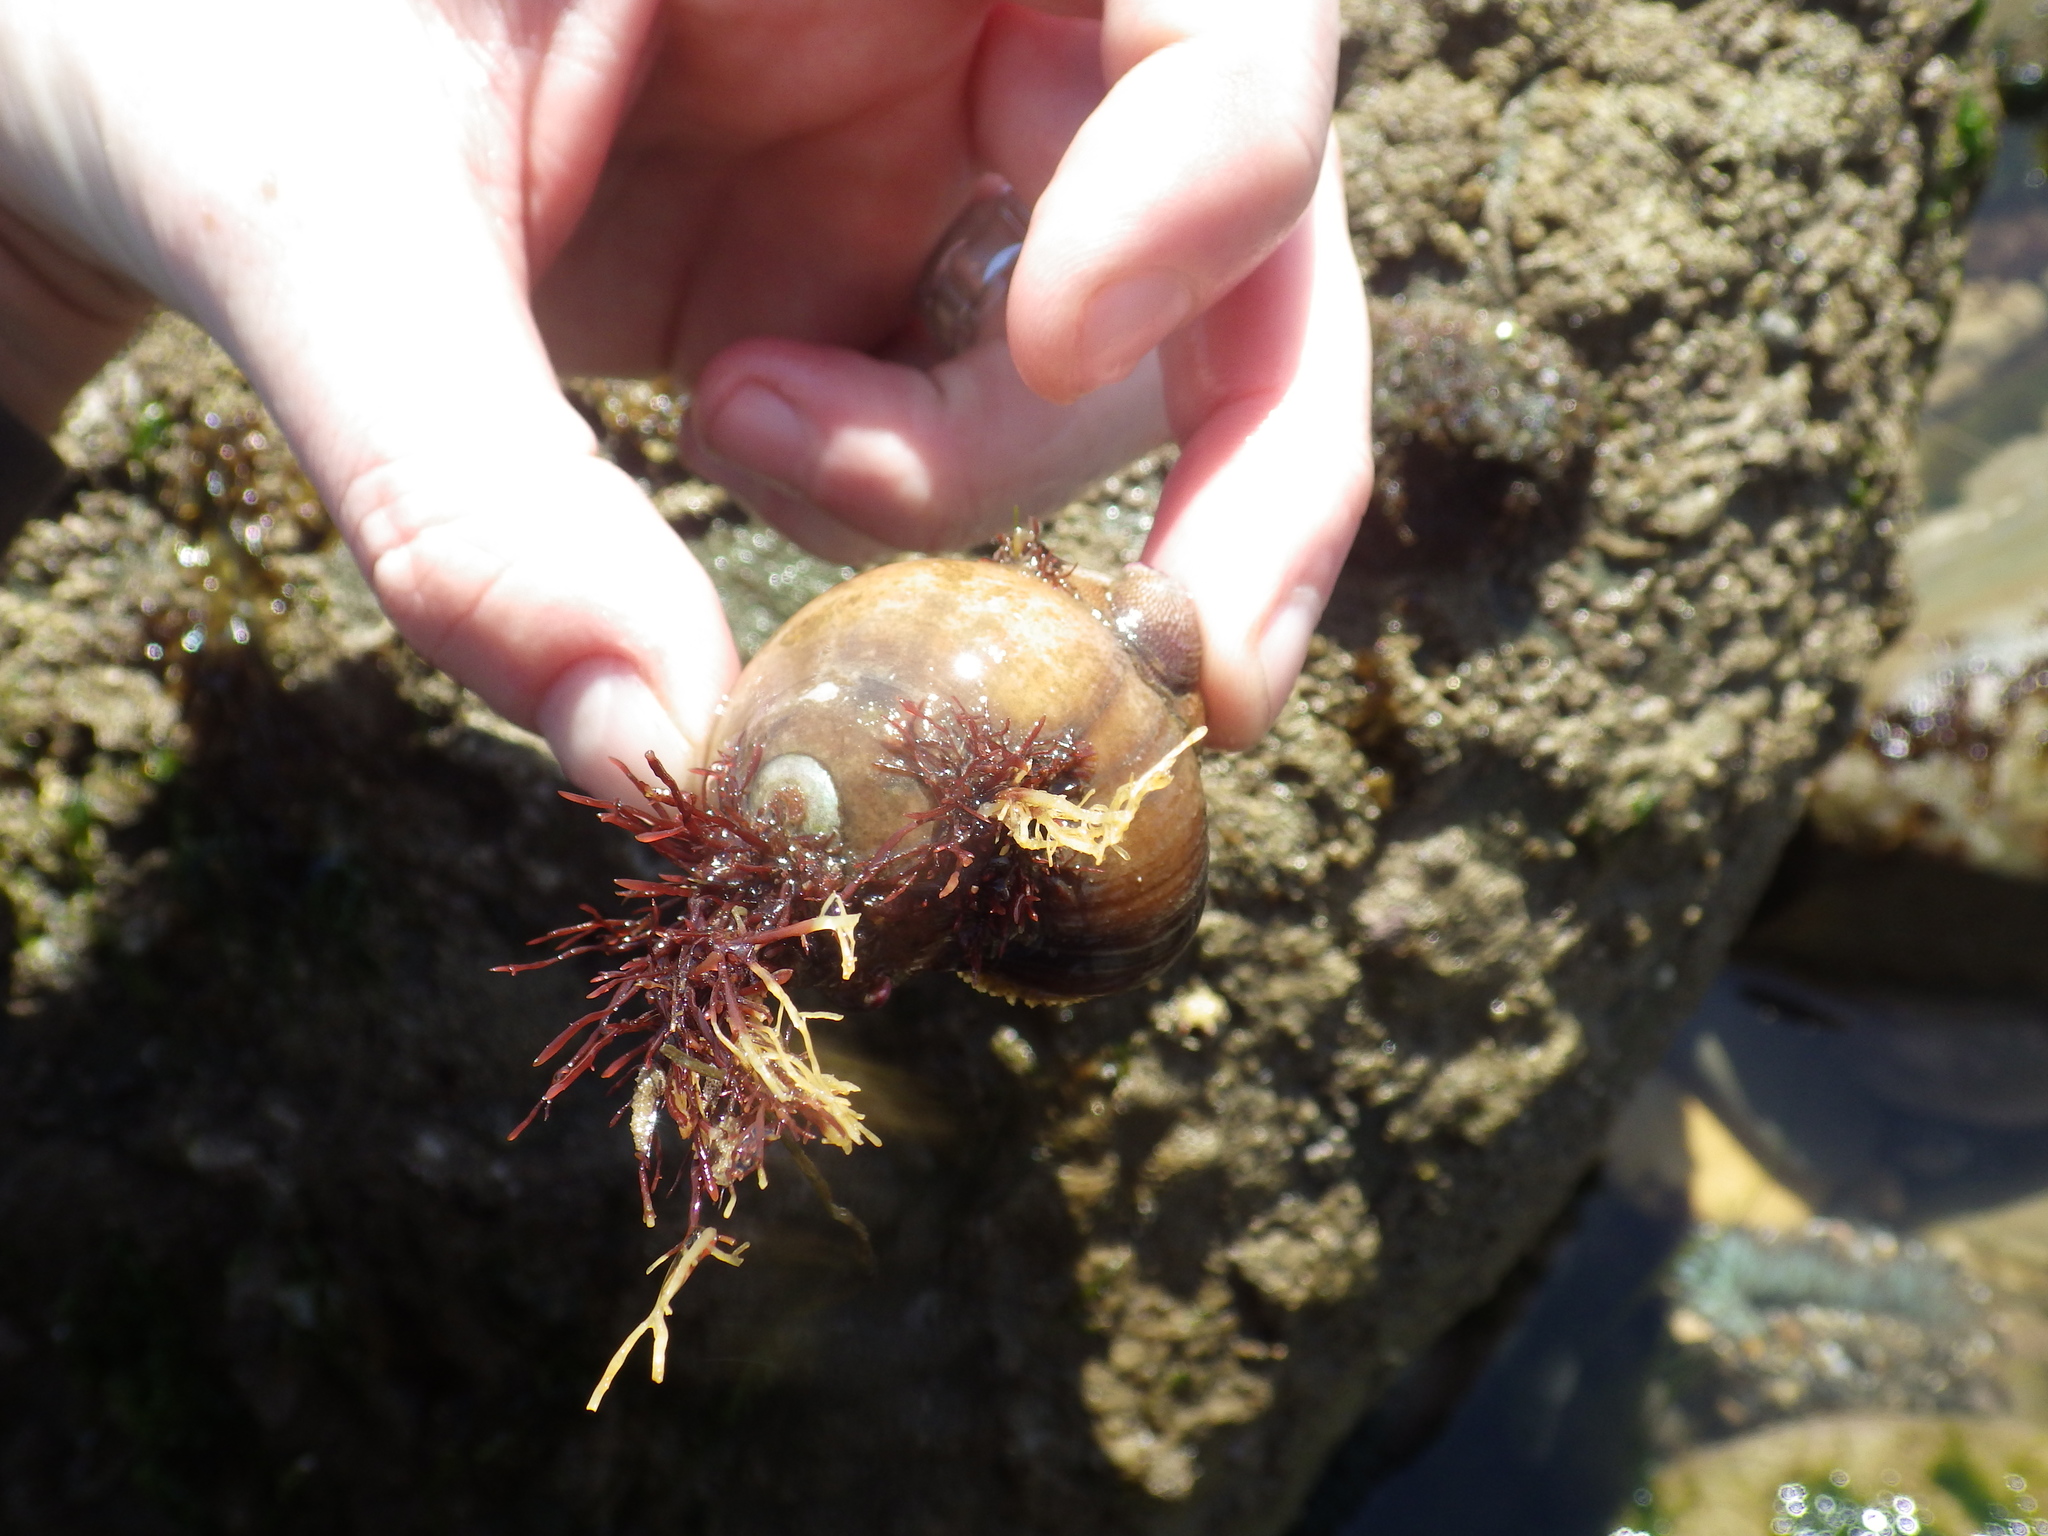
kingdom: Animalia
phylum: Mollusca
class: Gastropoda
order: Trochida
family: Tegulidae
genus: Norrisia
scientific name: Norrisia norrisii
